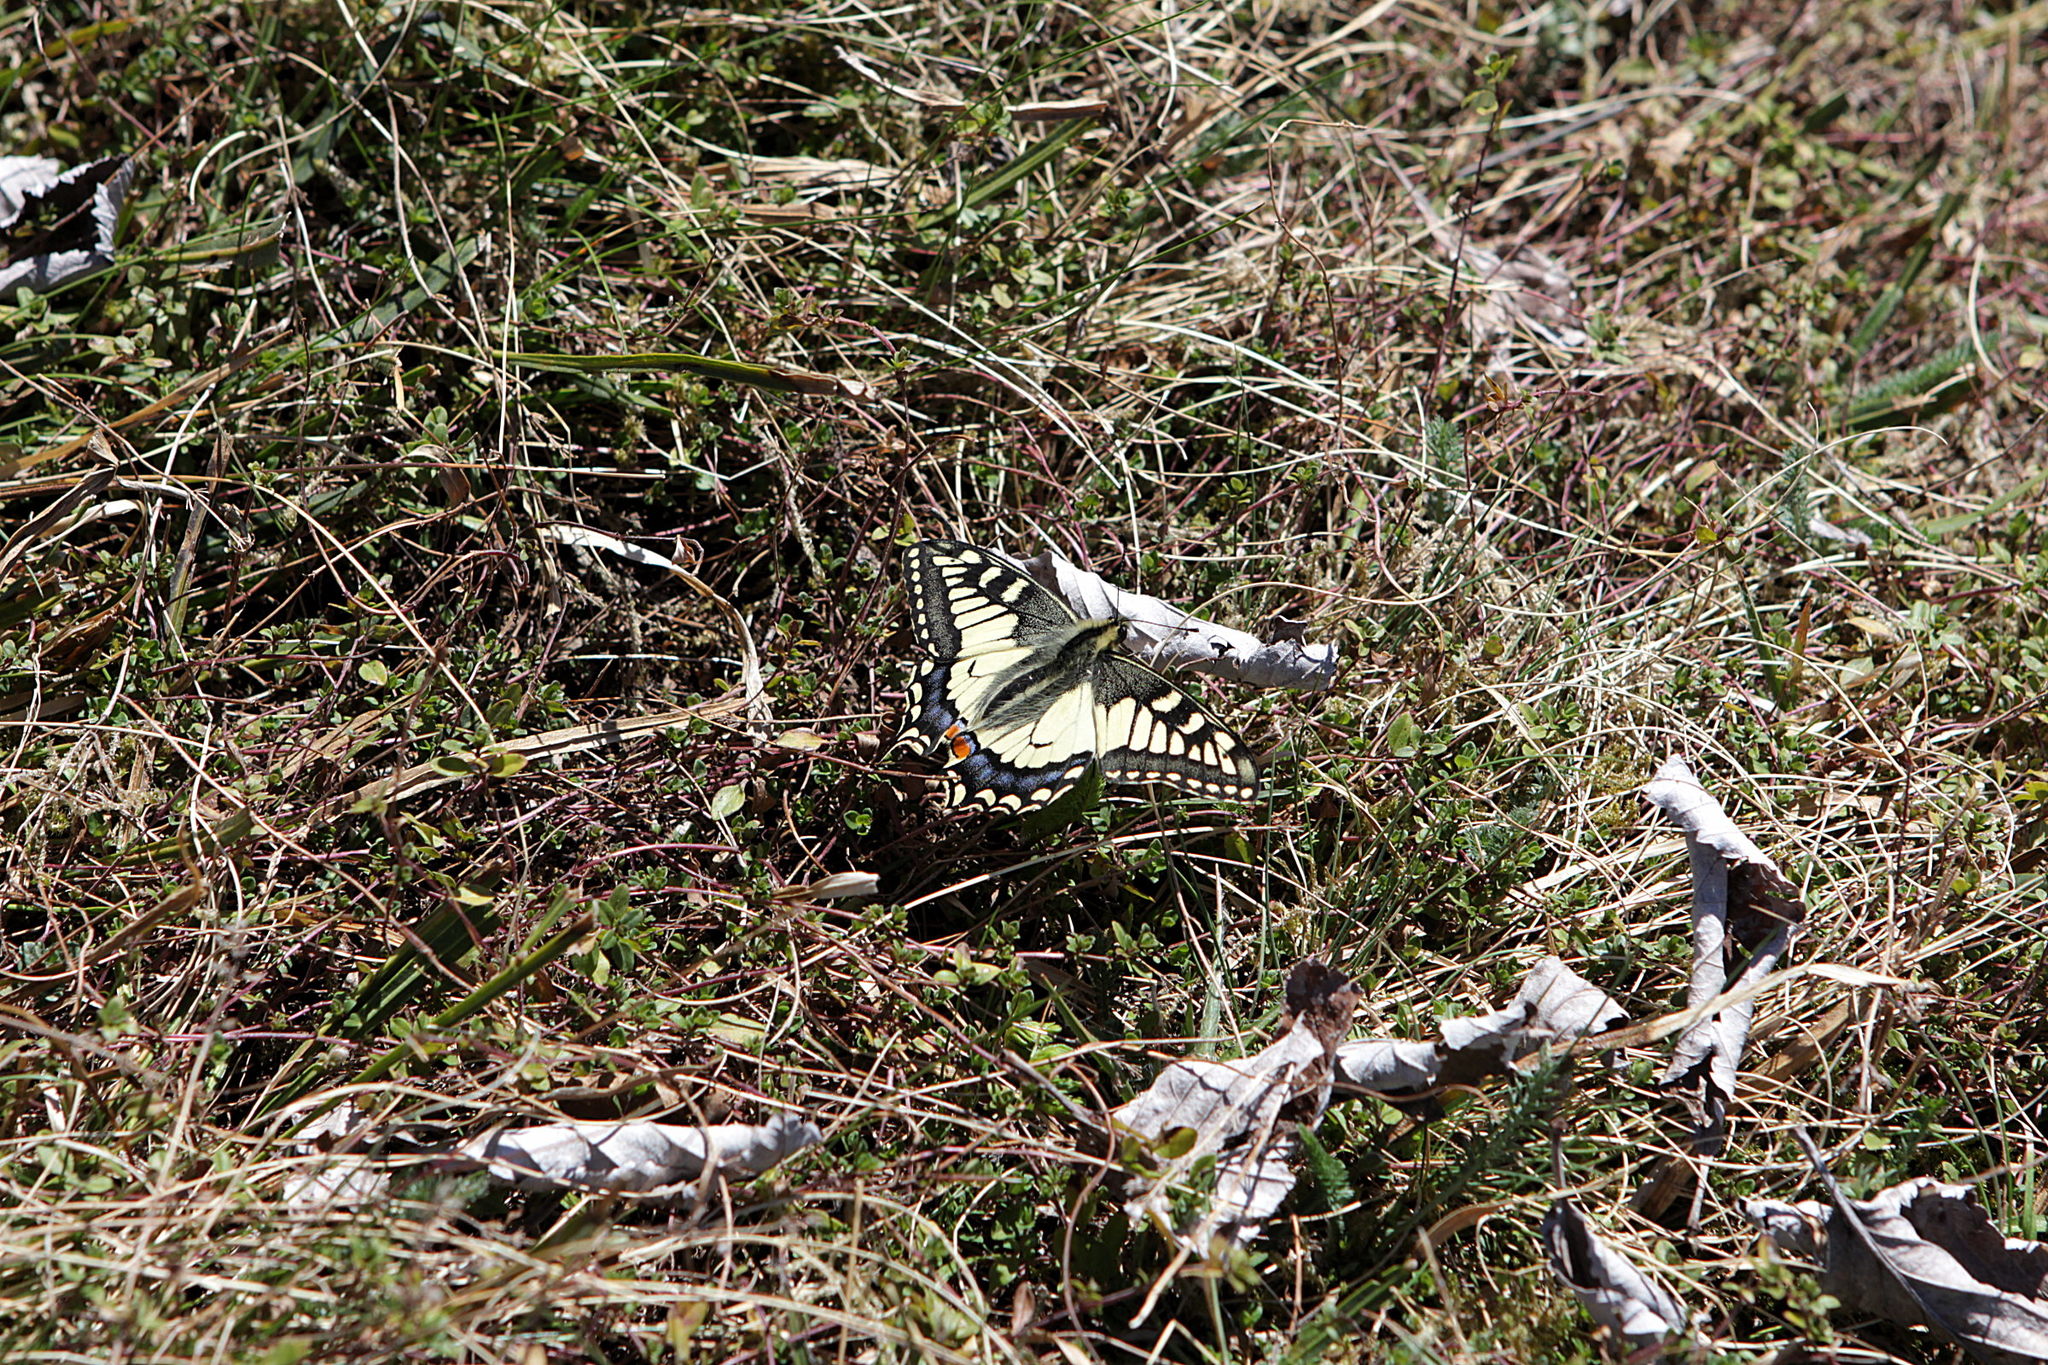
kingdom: Animalia
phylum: Arthropoda
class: Insecta
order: Lepidoptera
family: Papilionidae
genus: Papilio
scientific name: Papilio machaon
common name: Swallowtail
